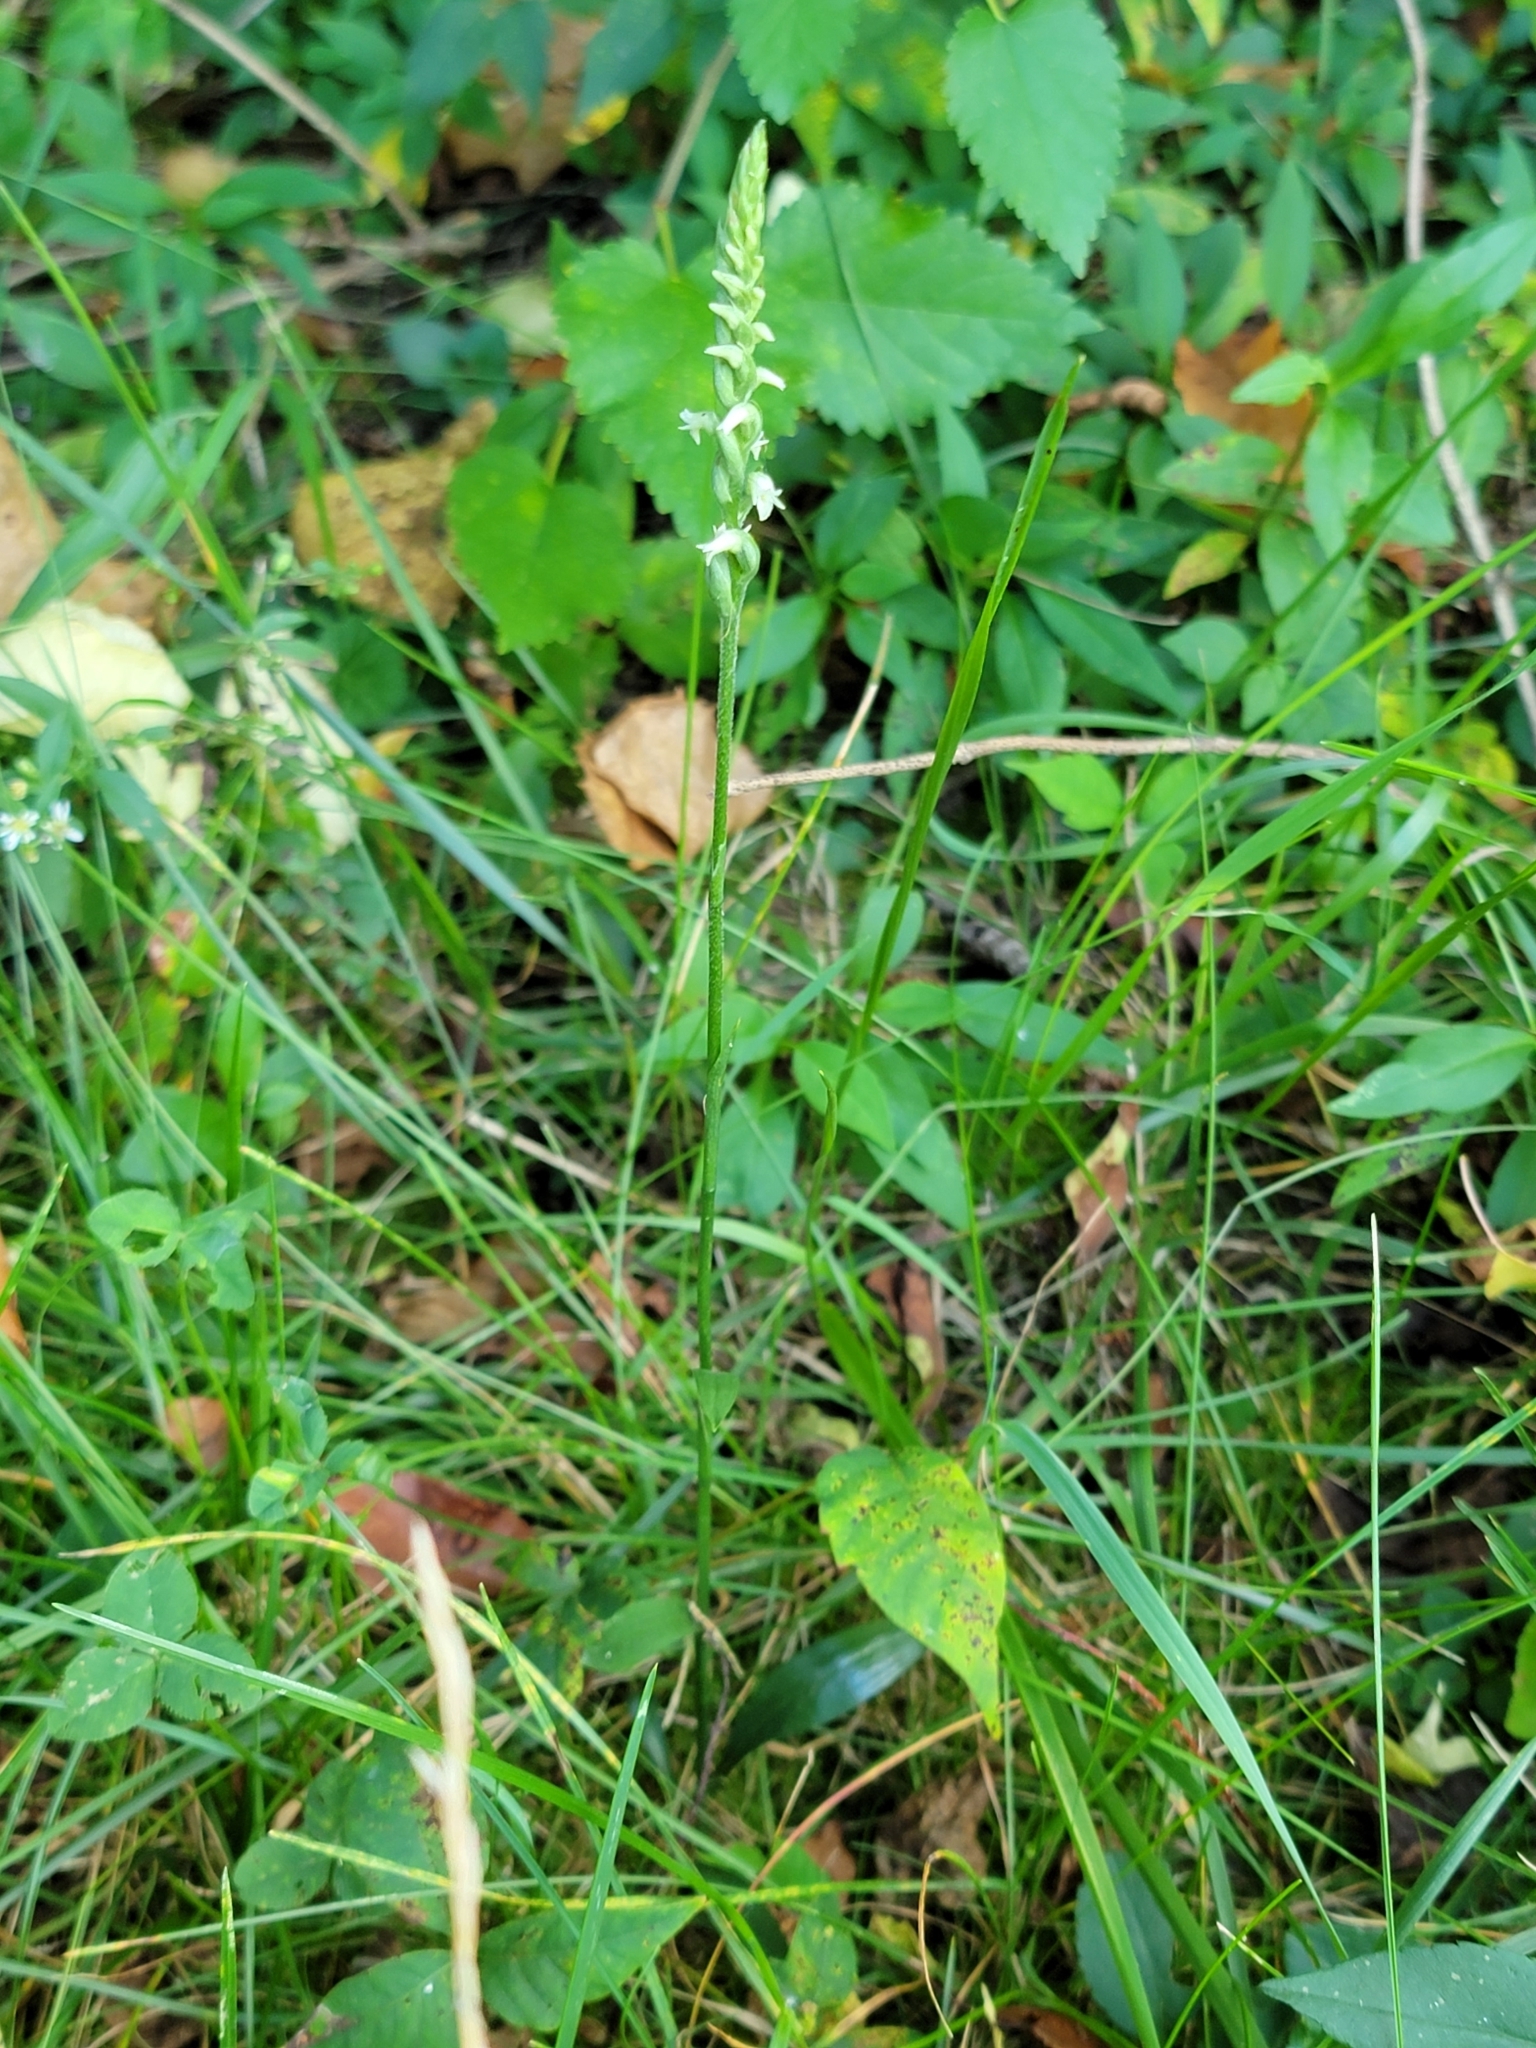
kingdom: Plantae
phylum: Tracheophyta
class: Liliopsida
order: Asparagales
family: Orchidaceae
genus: Spiranthes
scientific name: Spiranthes ovalis
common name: October ladies'-tresses
